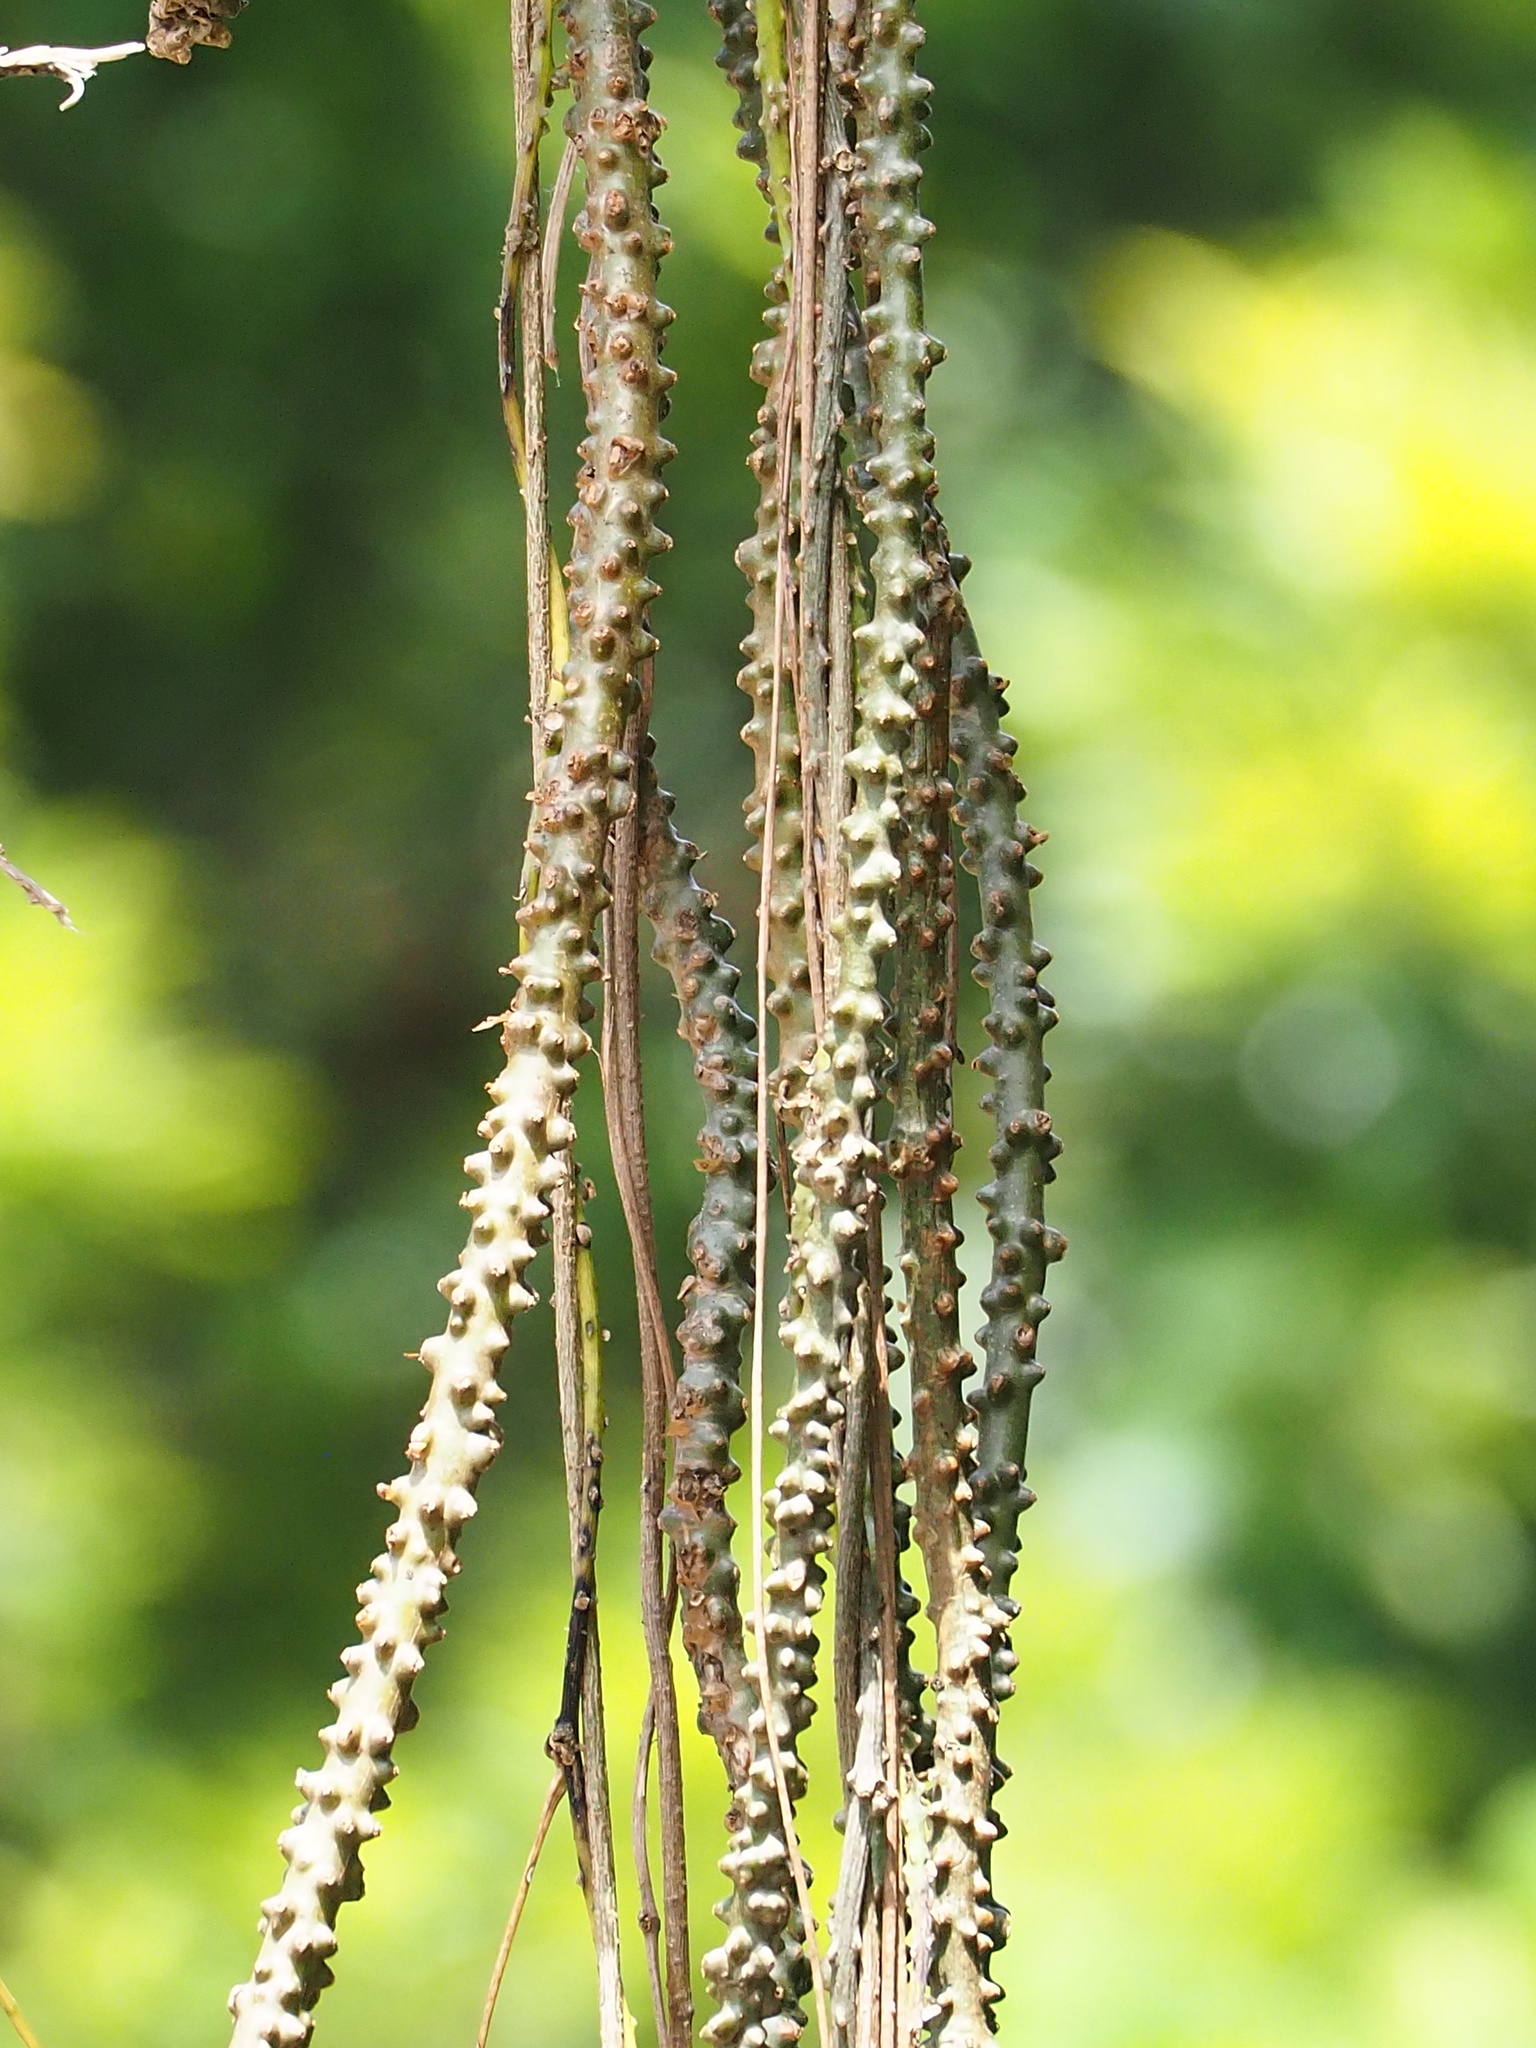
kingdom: Plantae
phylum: Tracheophyta
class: Magnoliopsida
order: Ranunculales
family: Menispermaceae
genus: Tinospora
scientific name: Tinospora crispa
